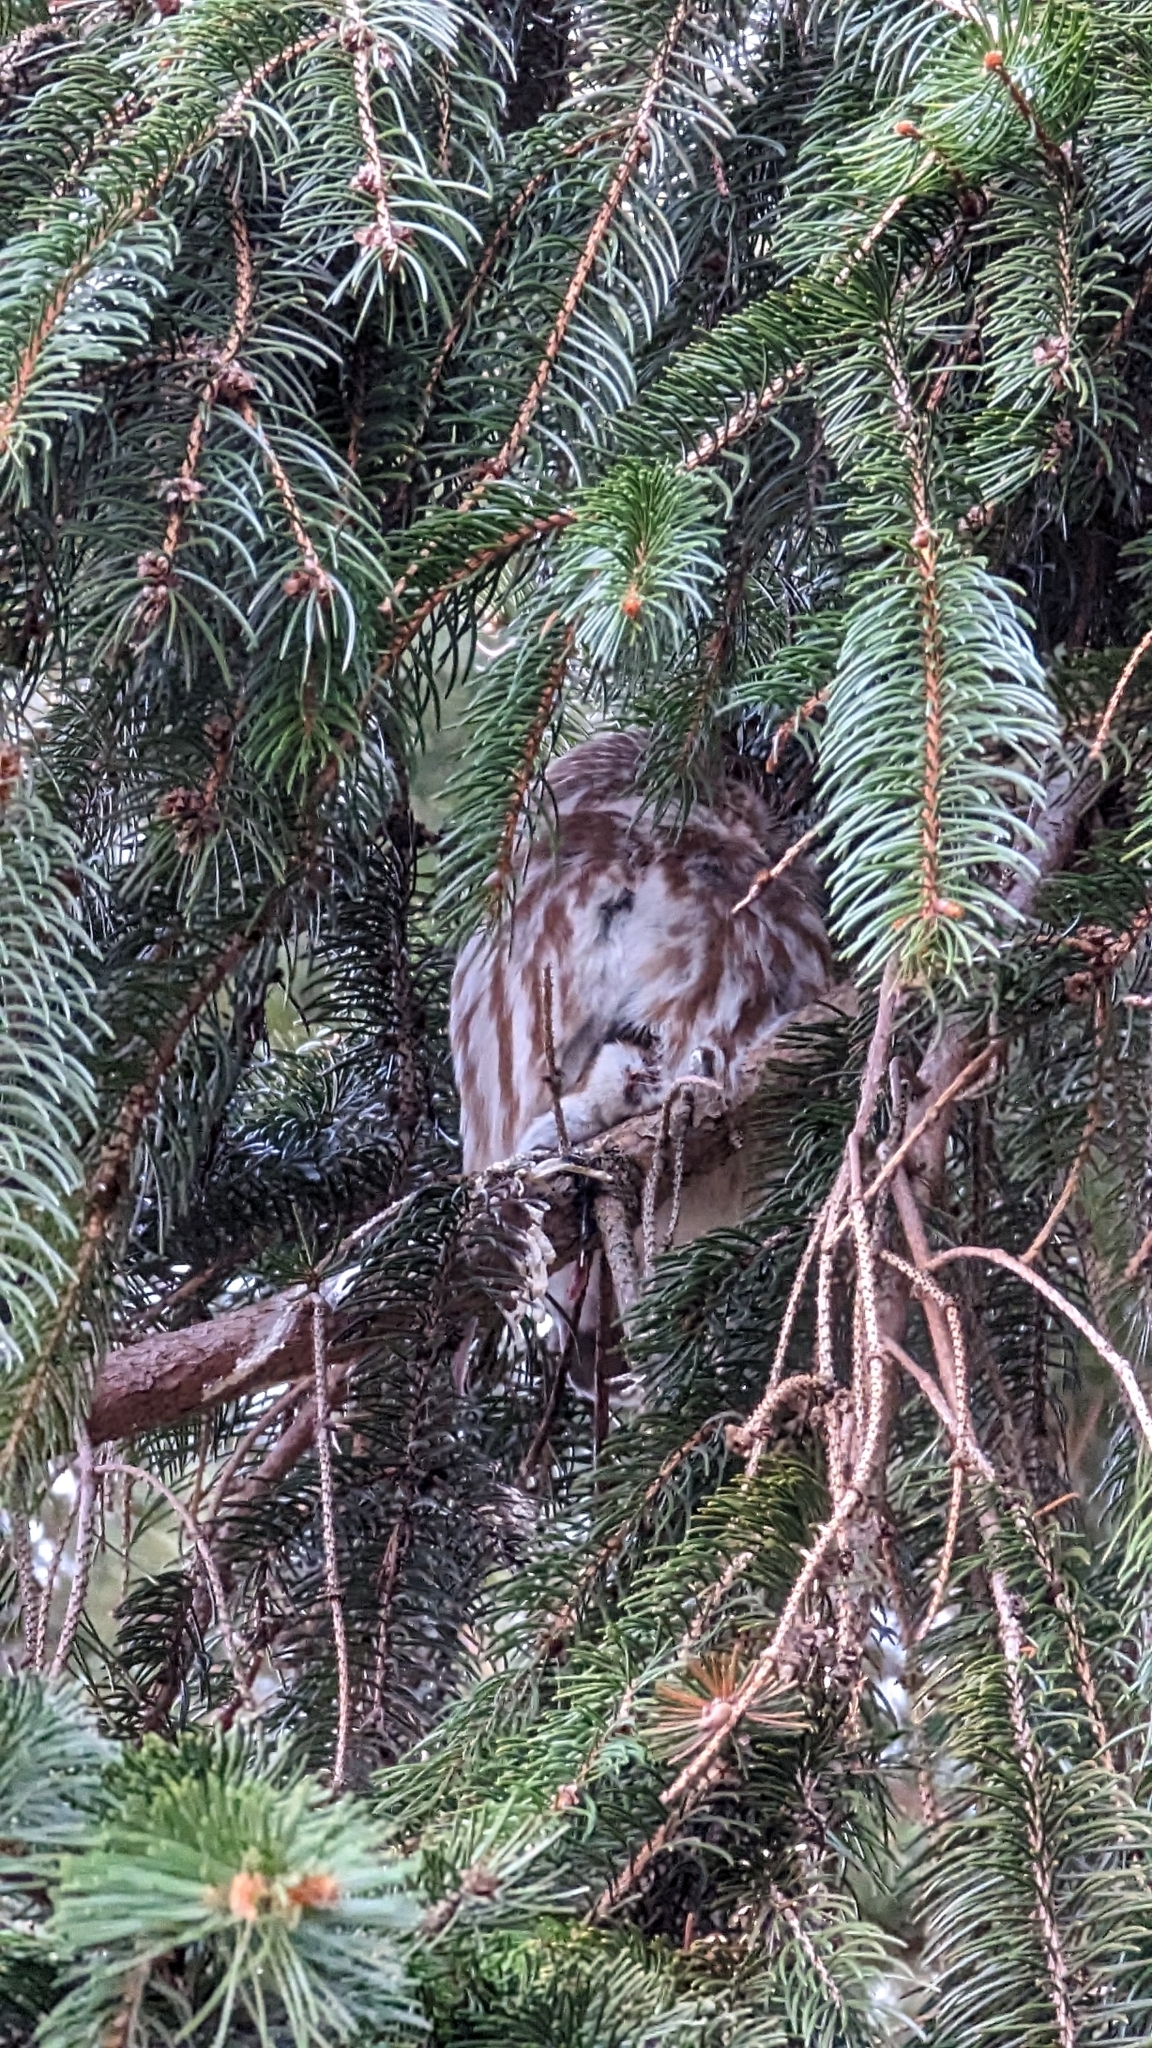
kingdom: Animalia
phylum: Chordata
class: Aves
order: Strigiformes
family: Strigidae
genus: Aegolius
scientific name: Aegolius acadicus
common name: Northern saw-whet owl
